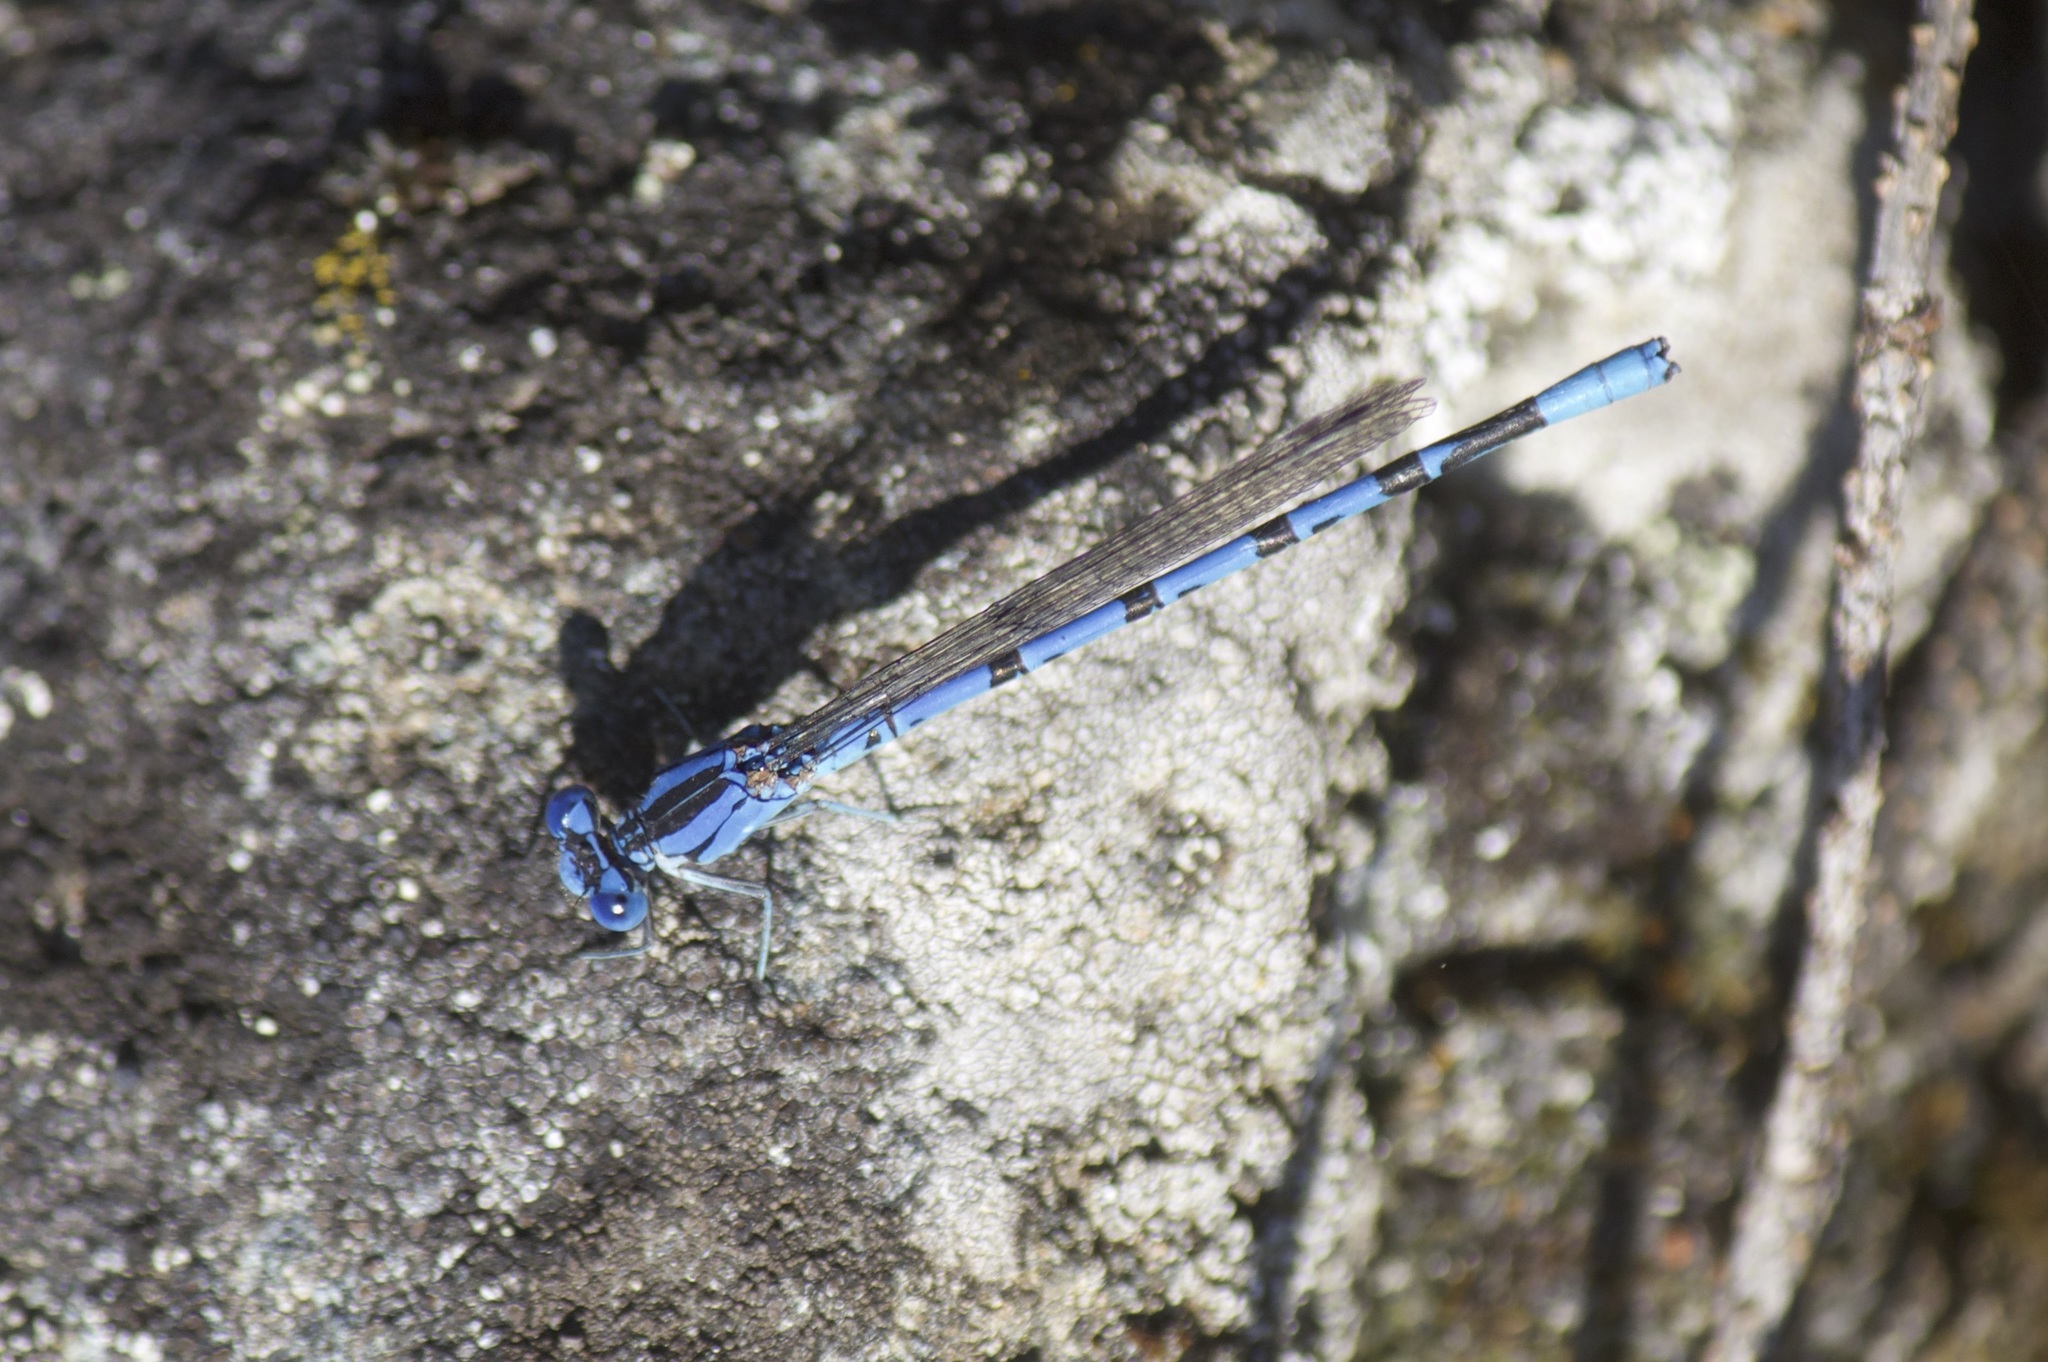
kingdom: Animalia
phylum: Arthropoda
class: Insecta
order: Odonata
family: Coenagrionidae
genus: Argia
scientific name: Argia vivida
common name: Vivid dancer
